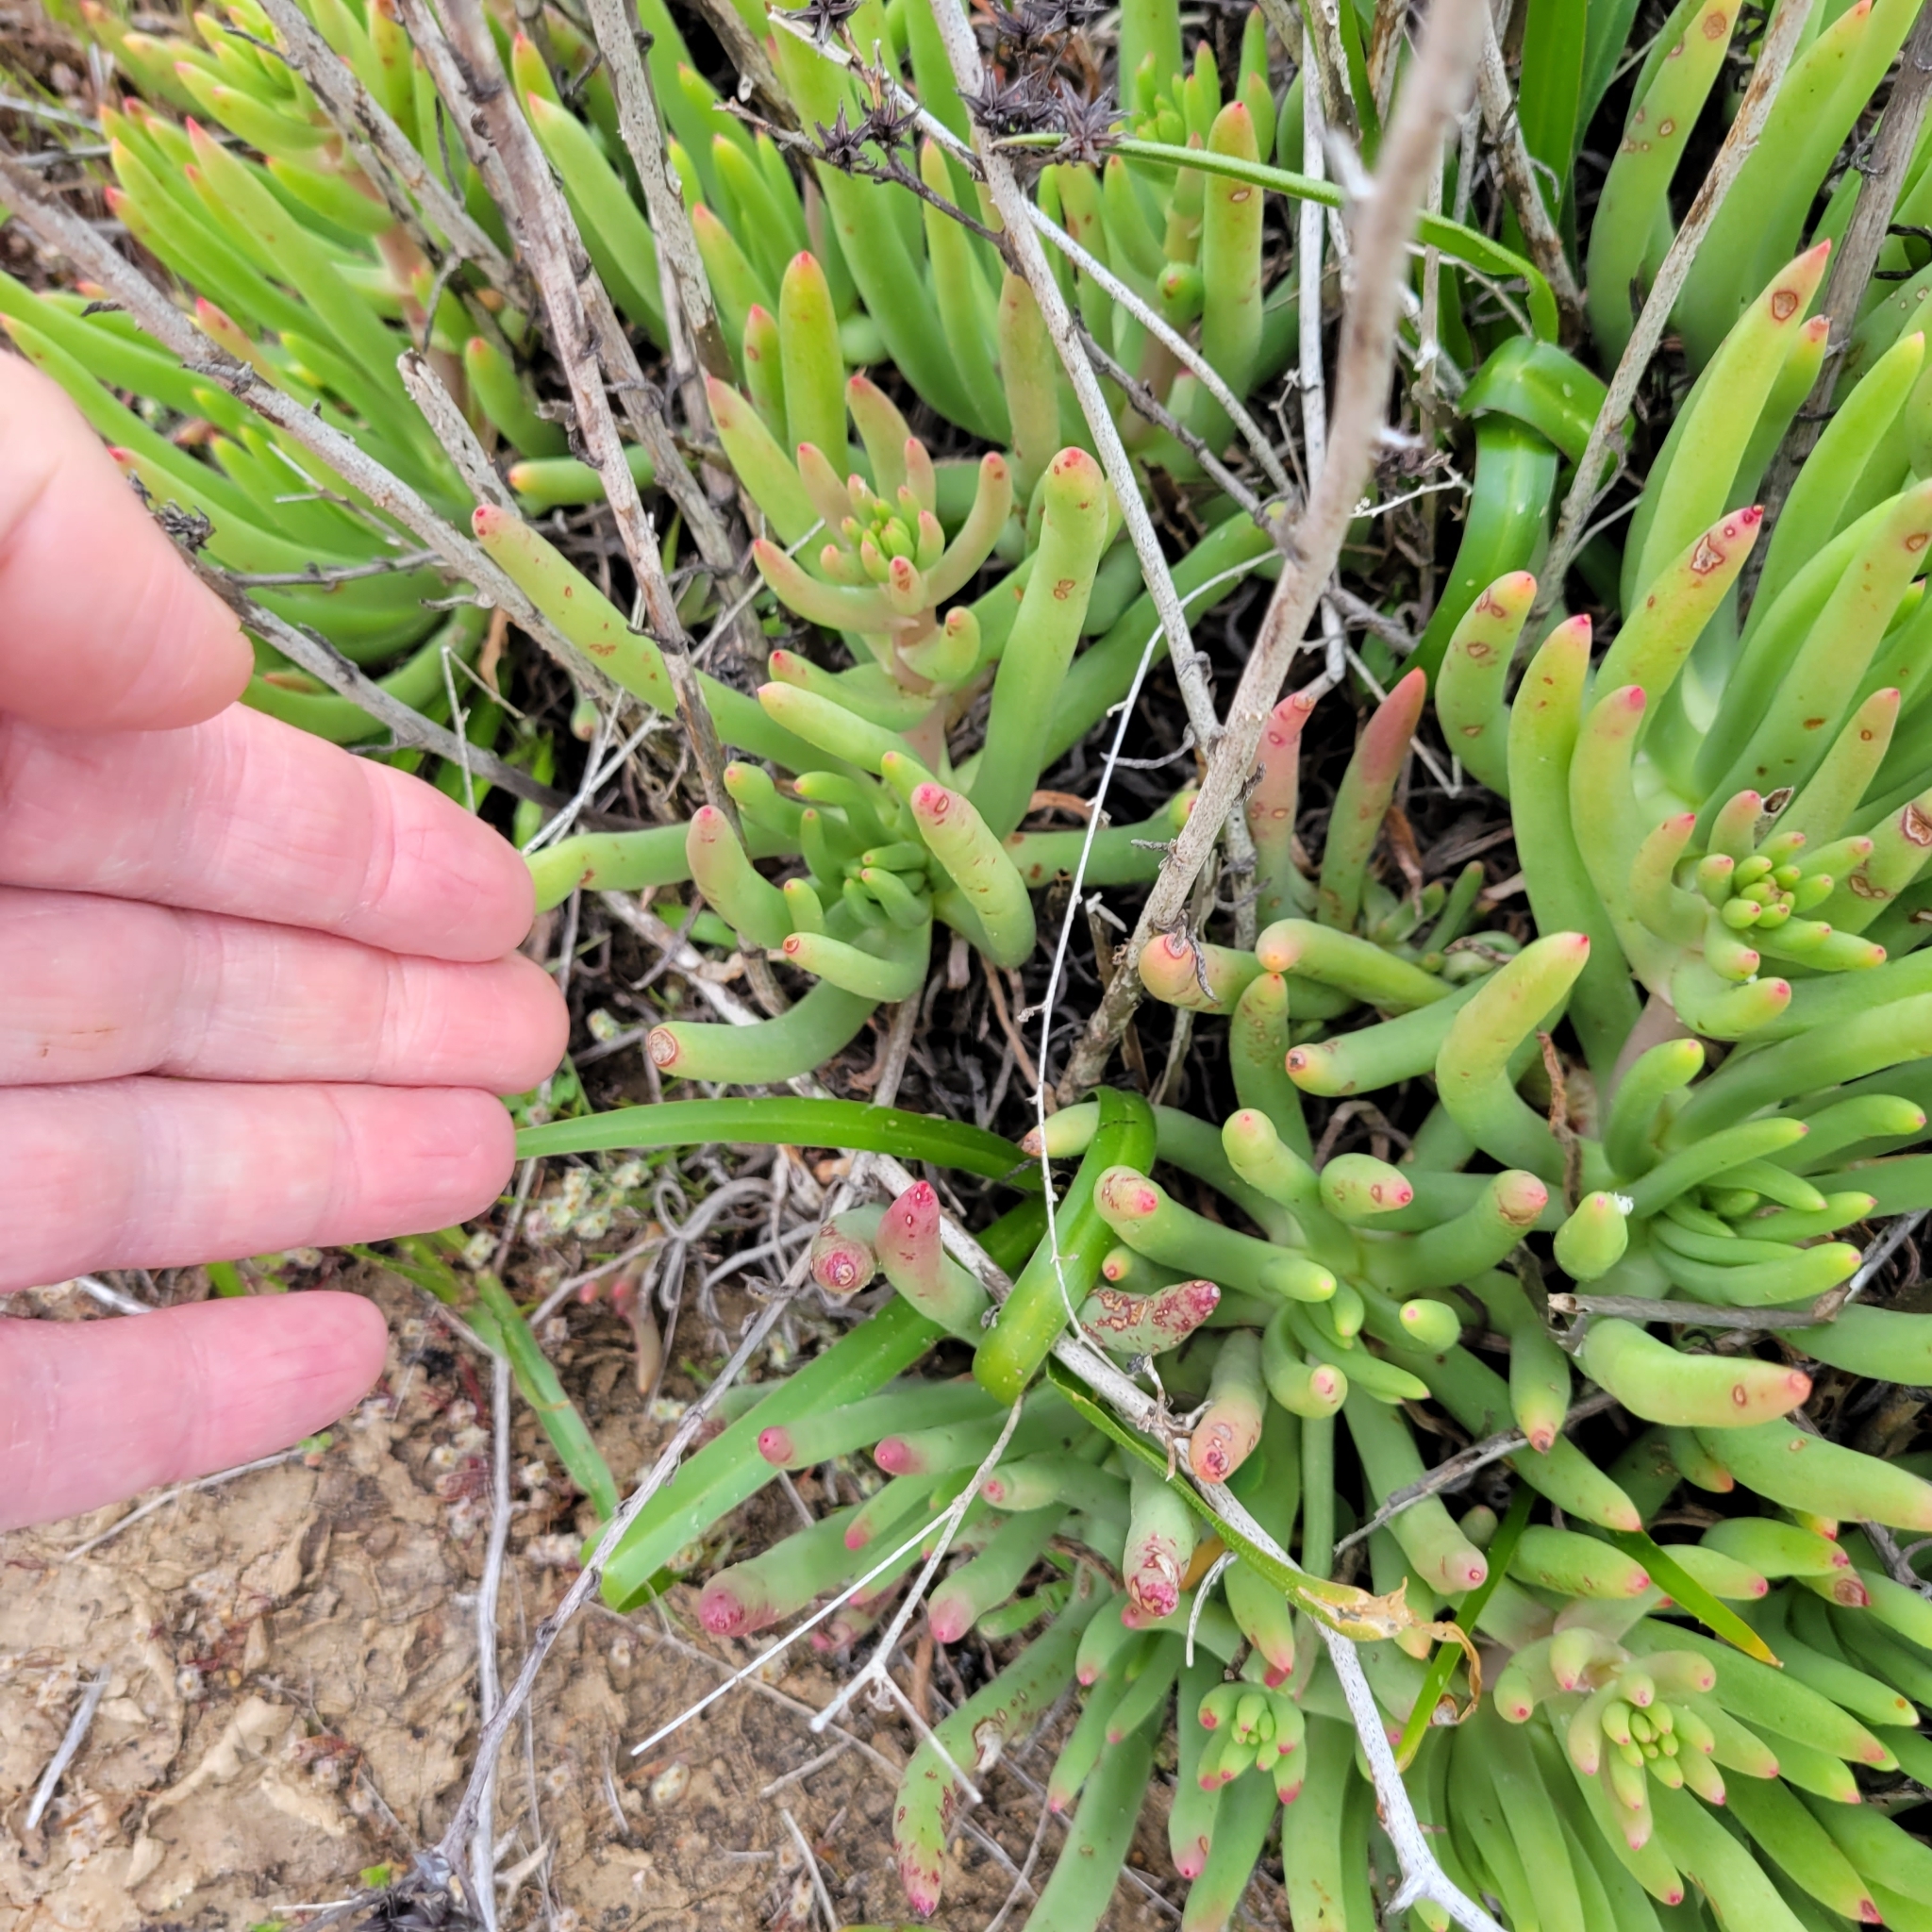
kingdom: Plantae
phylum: Tracheophyta
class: Magnoliopsida
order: Saxifragales
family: Crassulaceae
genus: Dudleya
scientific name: Dudleya edulis
